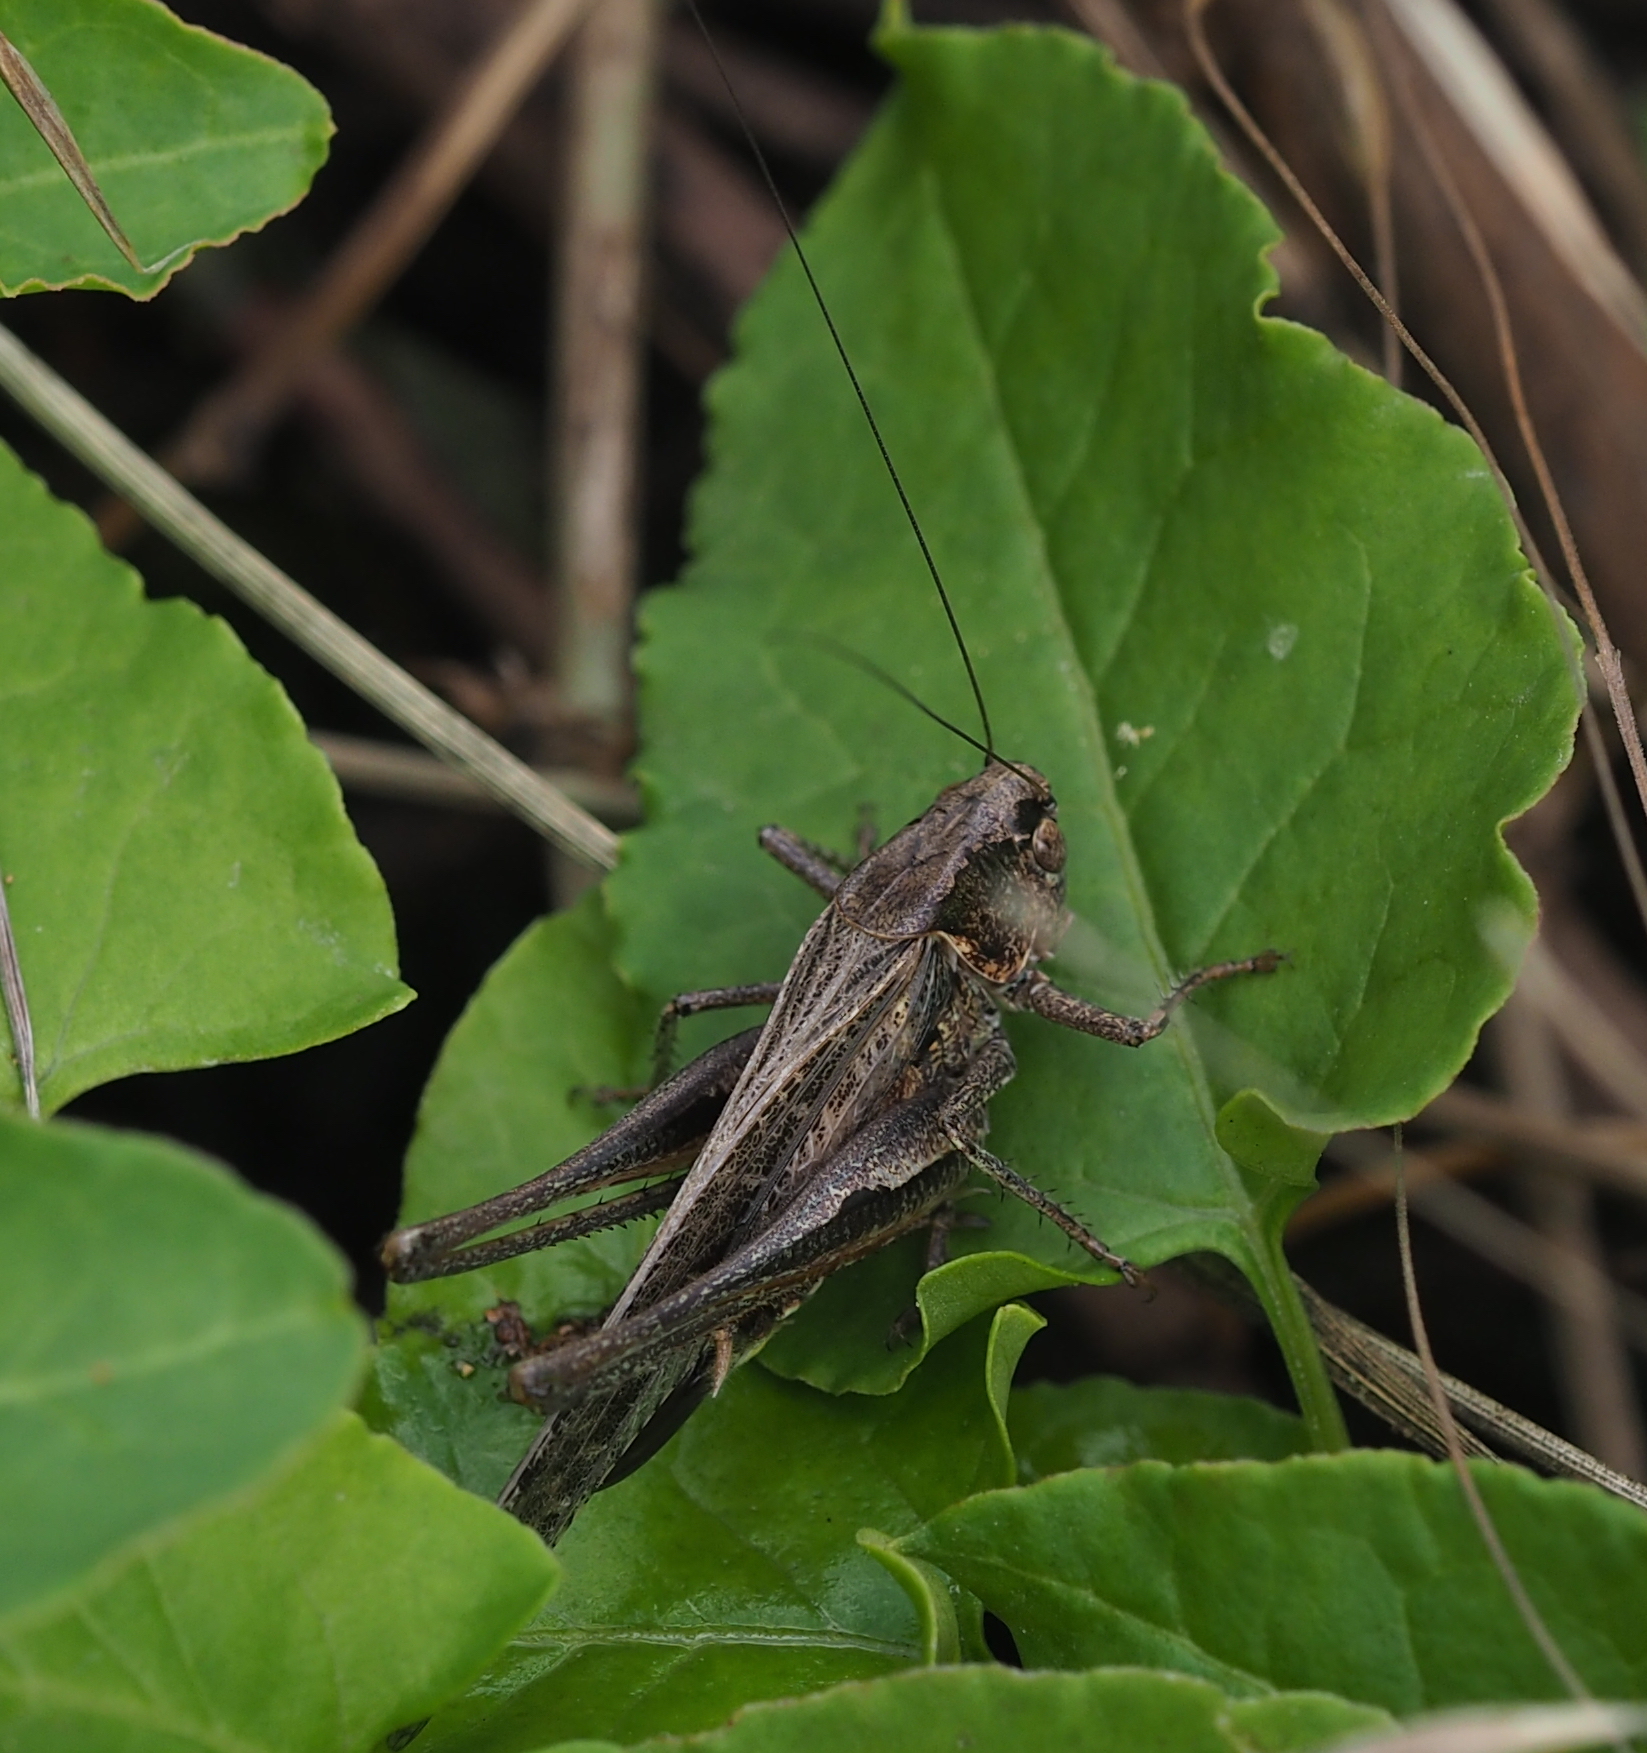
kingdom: Animalia
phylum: Arthropoda
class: Insecta
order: Orthoptera
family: Tettigoniidae
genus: Platycleis
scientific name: Platycleis grisea
